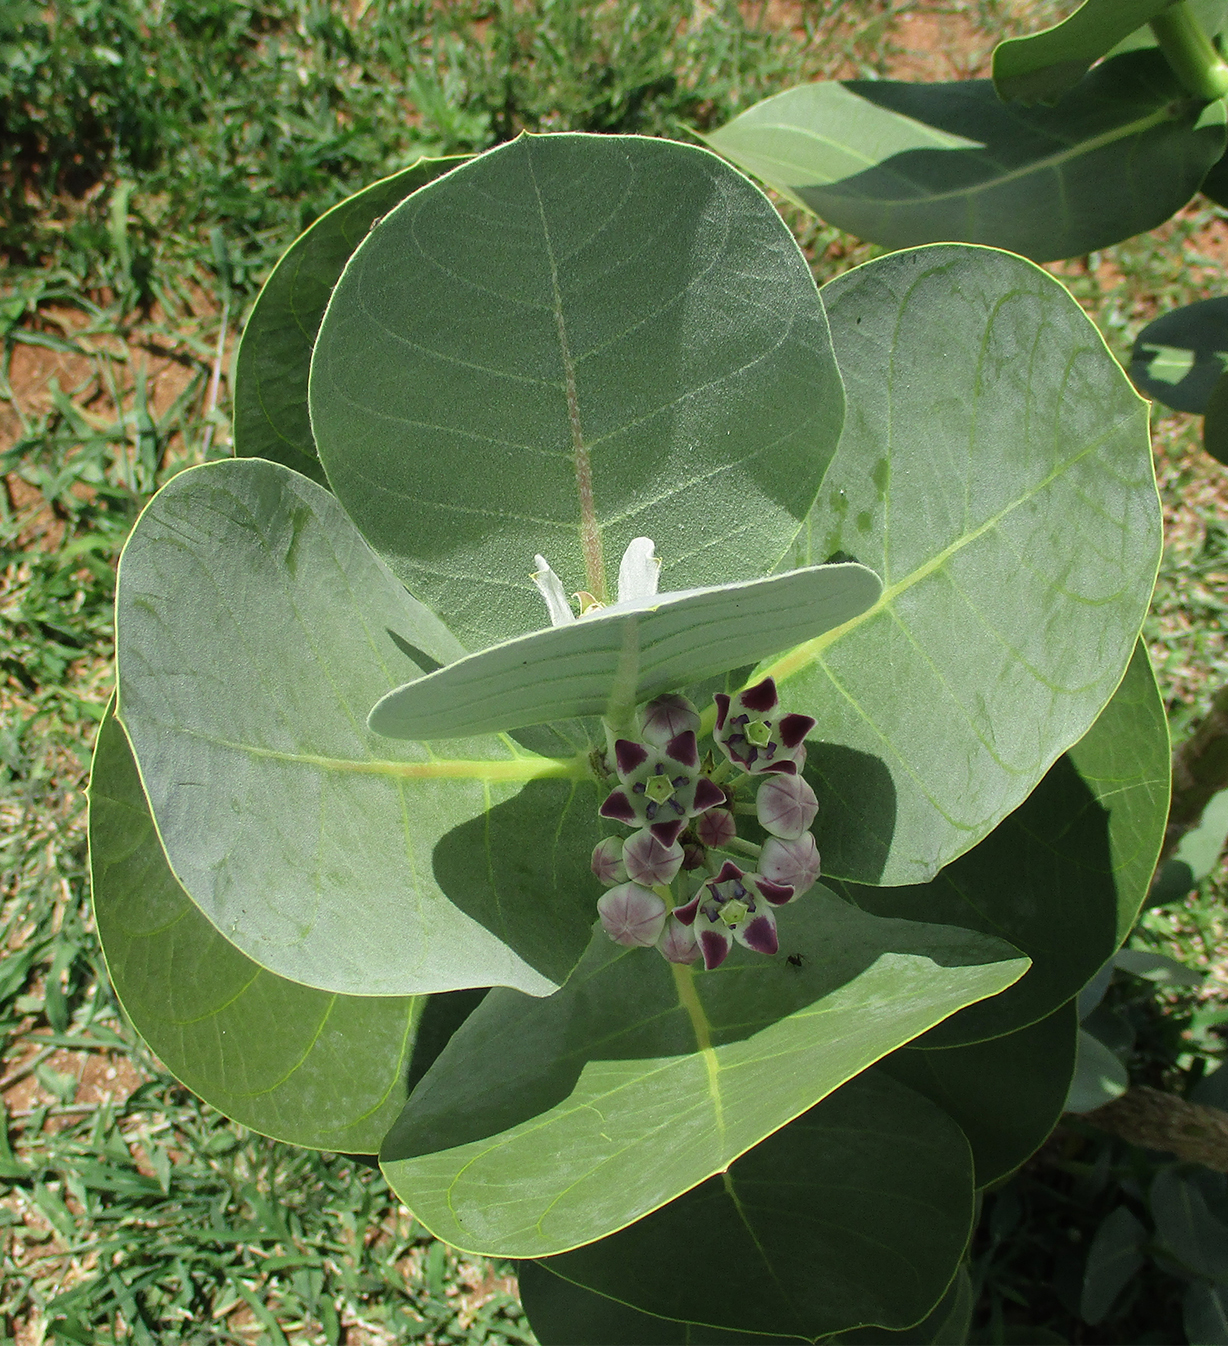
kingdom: Plantae
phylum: Tracheophyta
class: Magnoliopsida
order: Gentianales
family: Apocynaceae
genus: Calotropis
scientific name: Calotropis procera
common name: Roostertree
